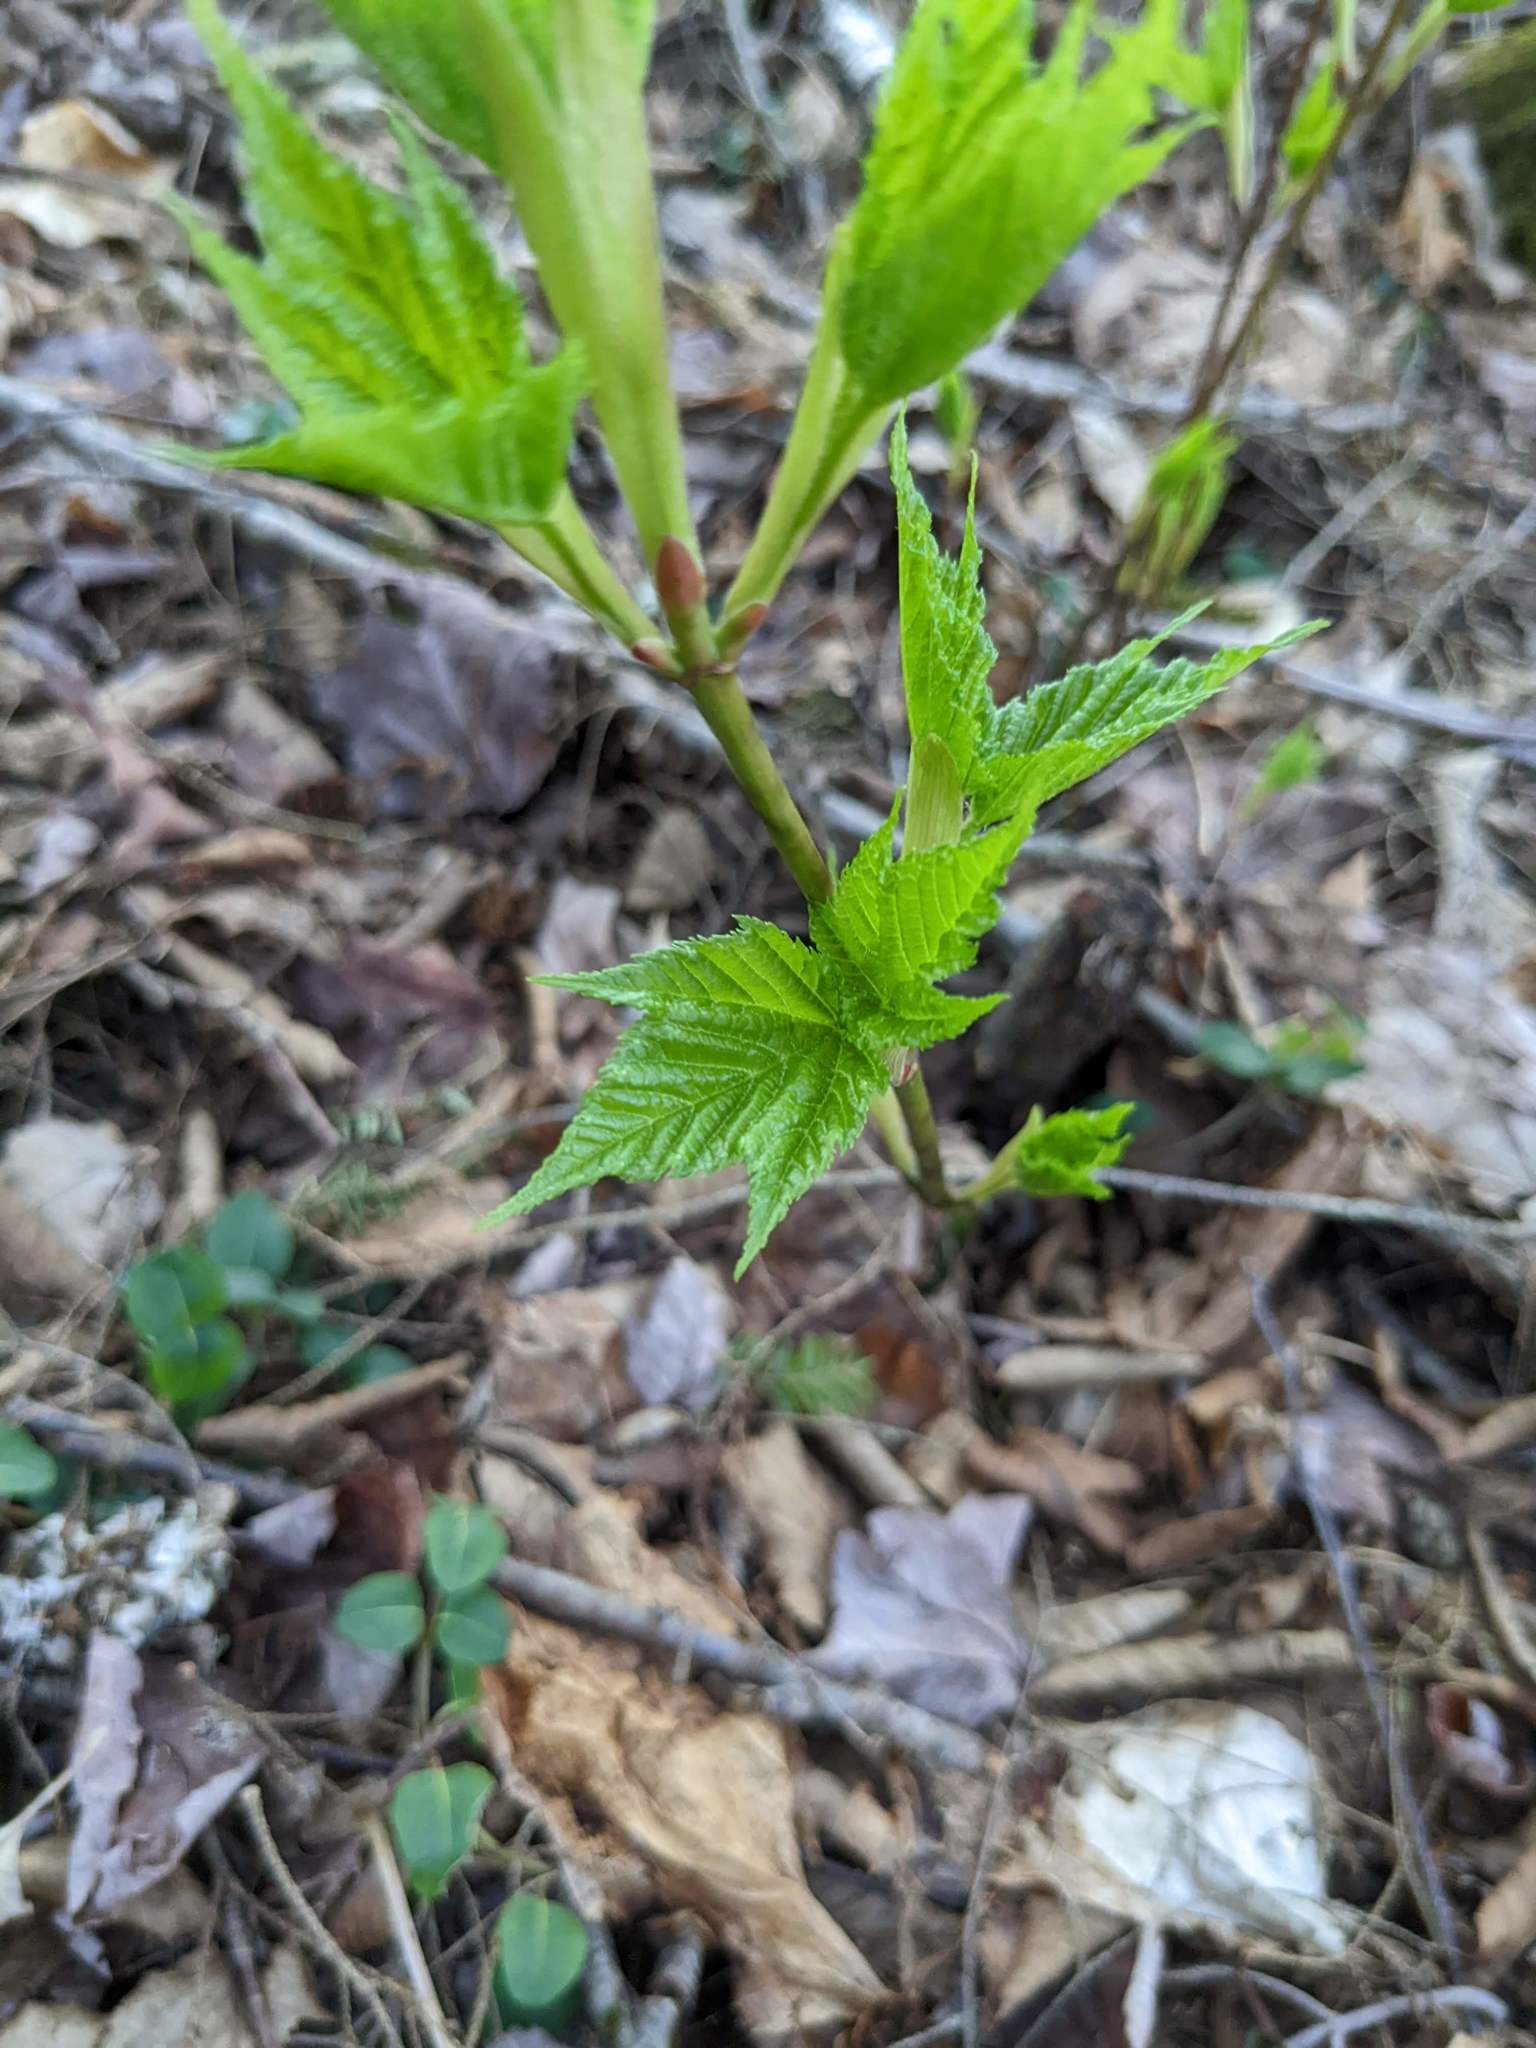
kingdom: Plantae
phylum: Tracheophyta
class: Magnoliopsida
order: Sapindales
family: Sapindaceae
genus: Acer
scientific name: Acer pensylvanicum
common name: Moosewood
